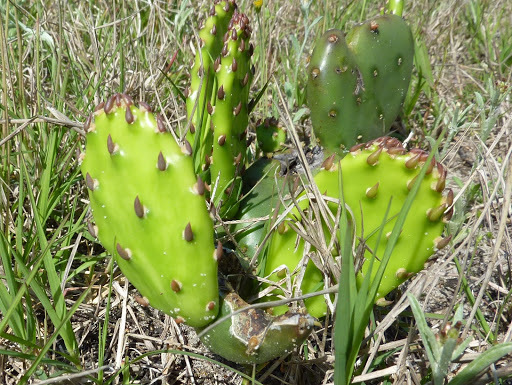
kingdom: Plantae
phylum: Tracheophyta
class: Magnoliopsida
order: Caryophyllales
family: Cactaceae
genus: Opuntia
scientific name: Opuntia humifusa
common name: Eastern prickly-pear
